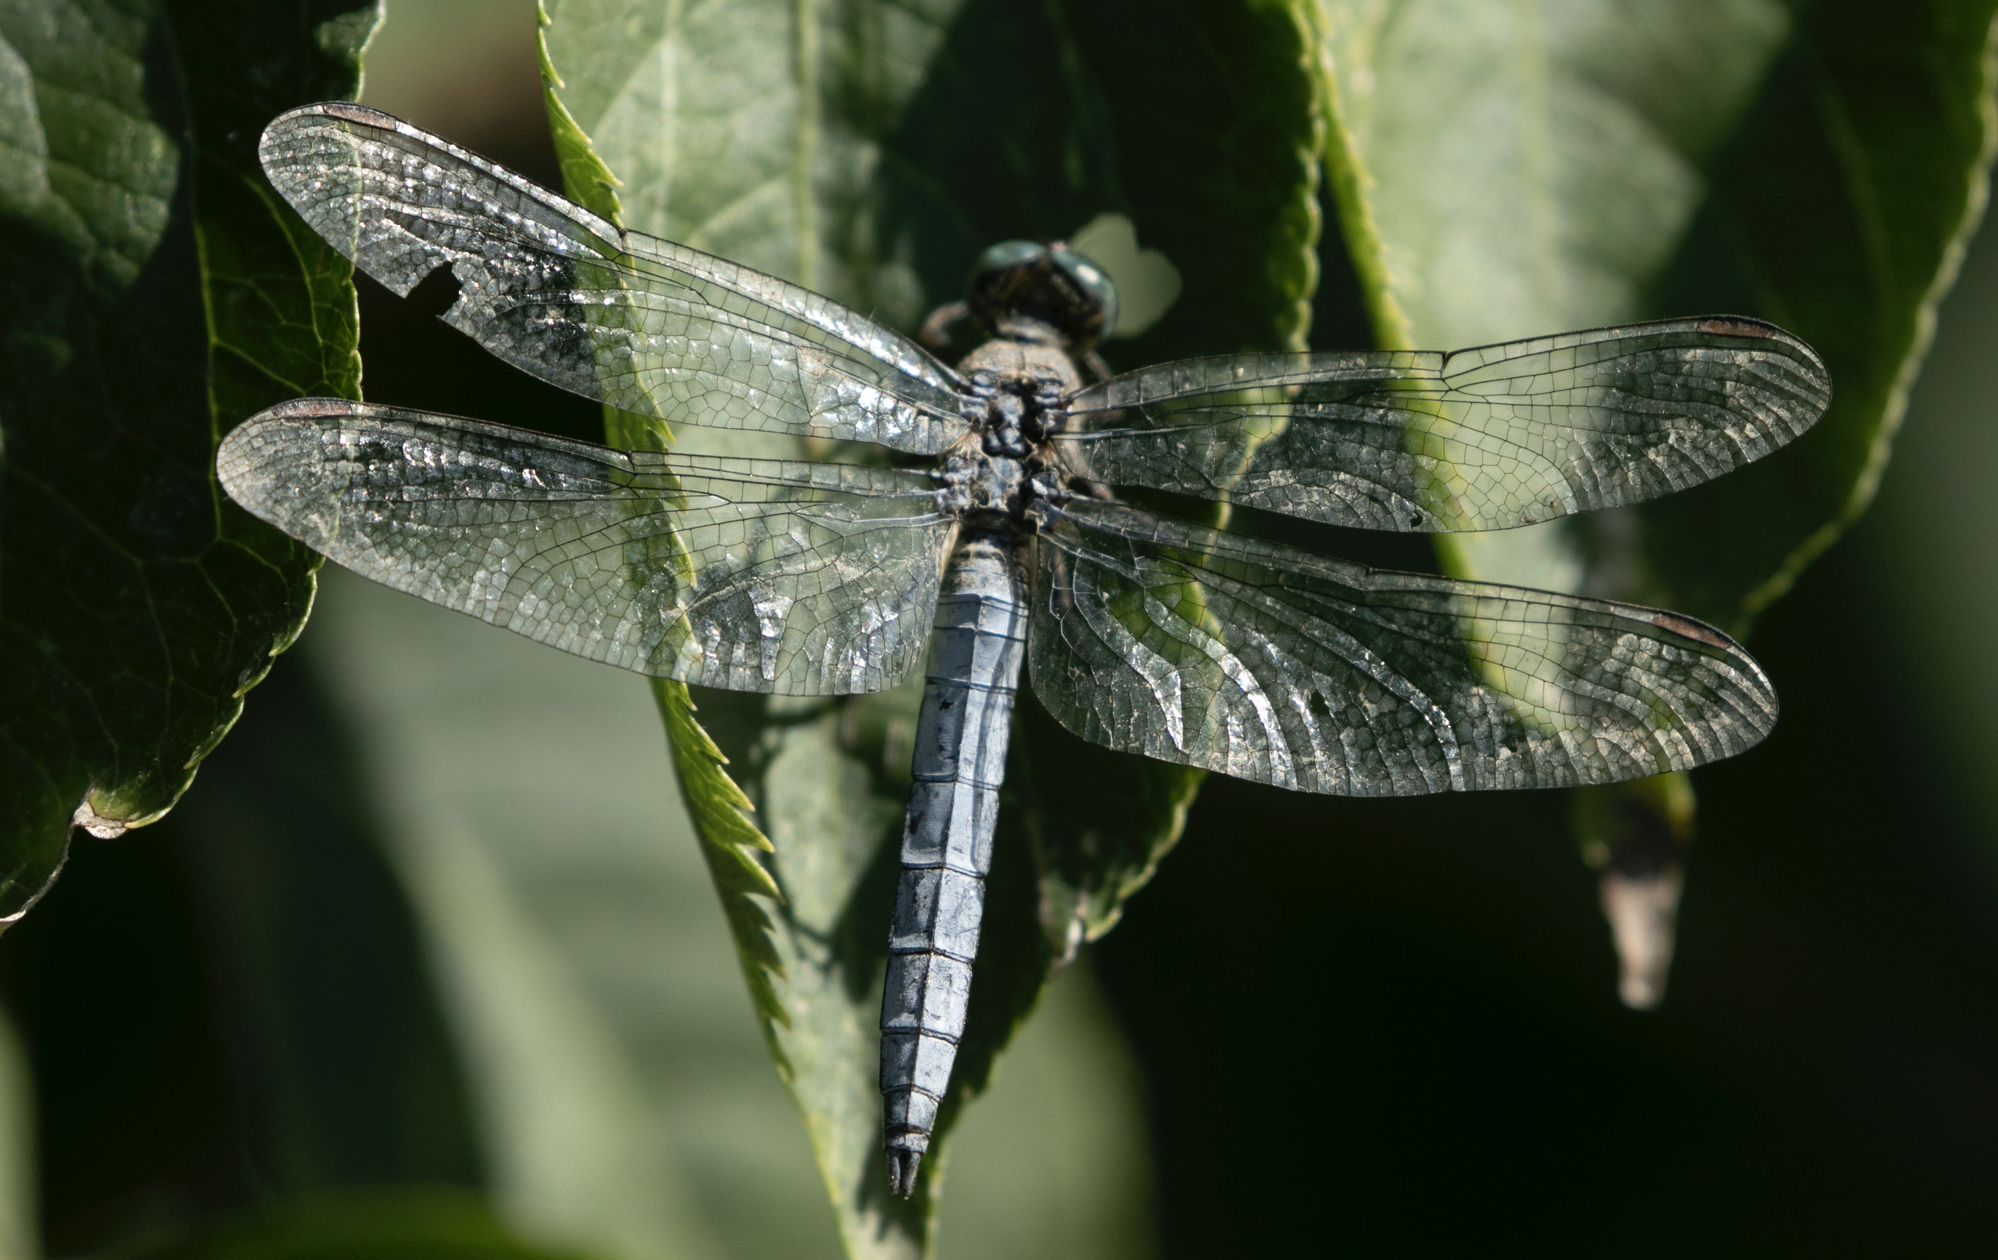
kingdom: Animalia
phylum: Arthropoda
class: Insecta
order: Odonata
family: Libellulidae
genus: Orthetrum
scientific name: Orthetrum coerulescens
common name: Keeled skimmer
